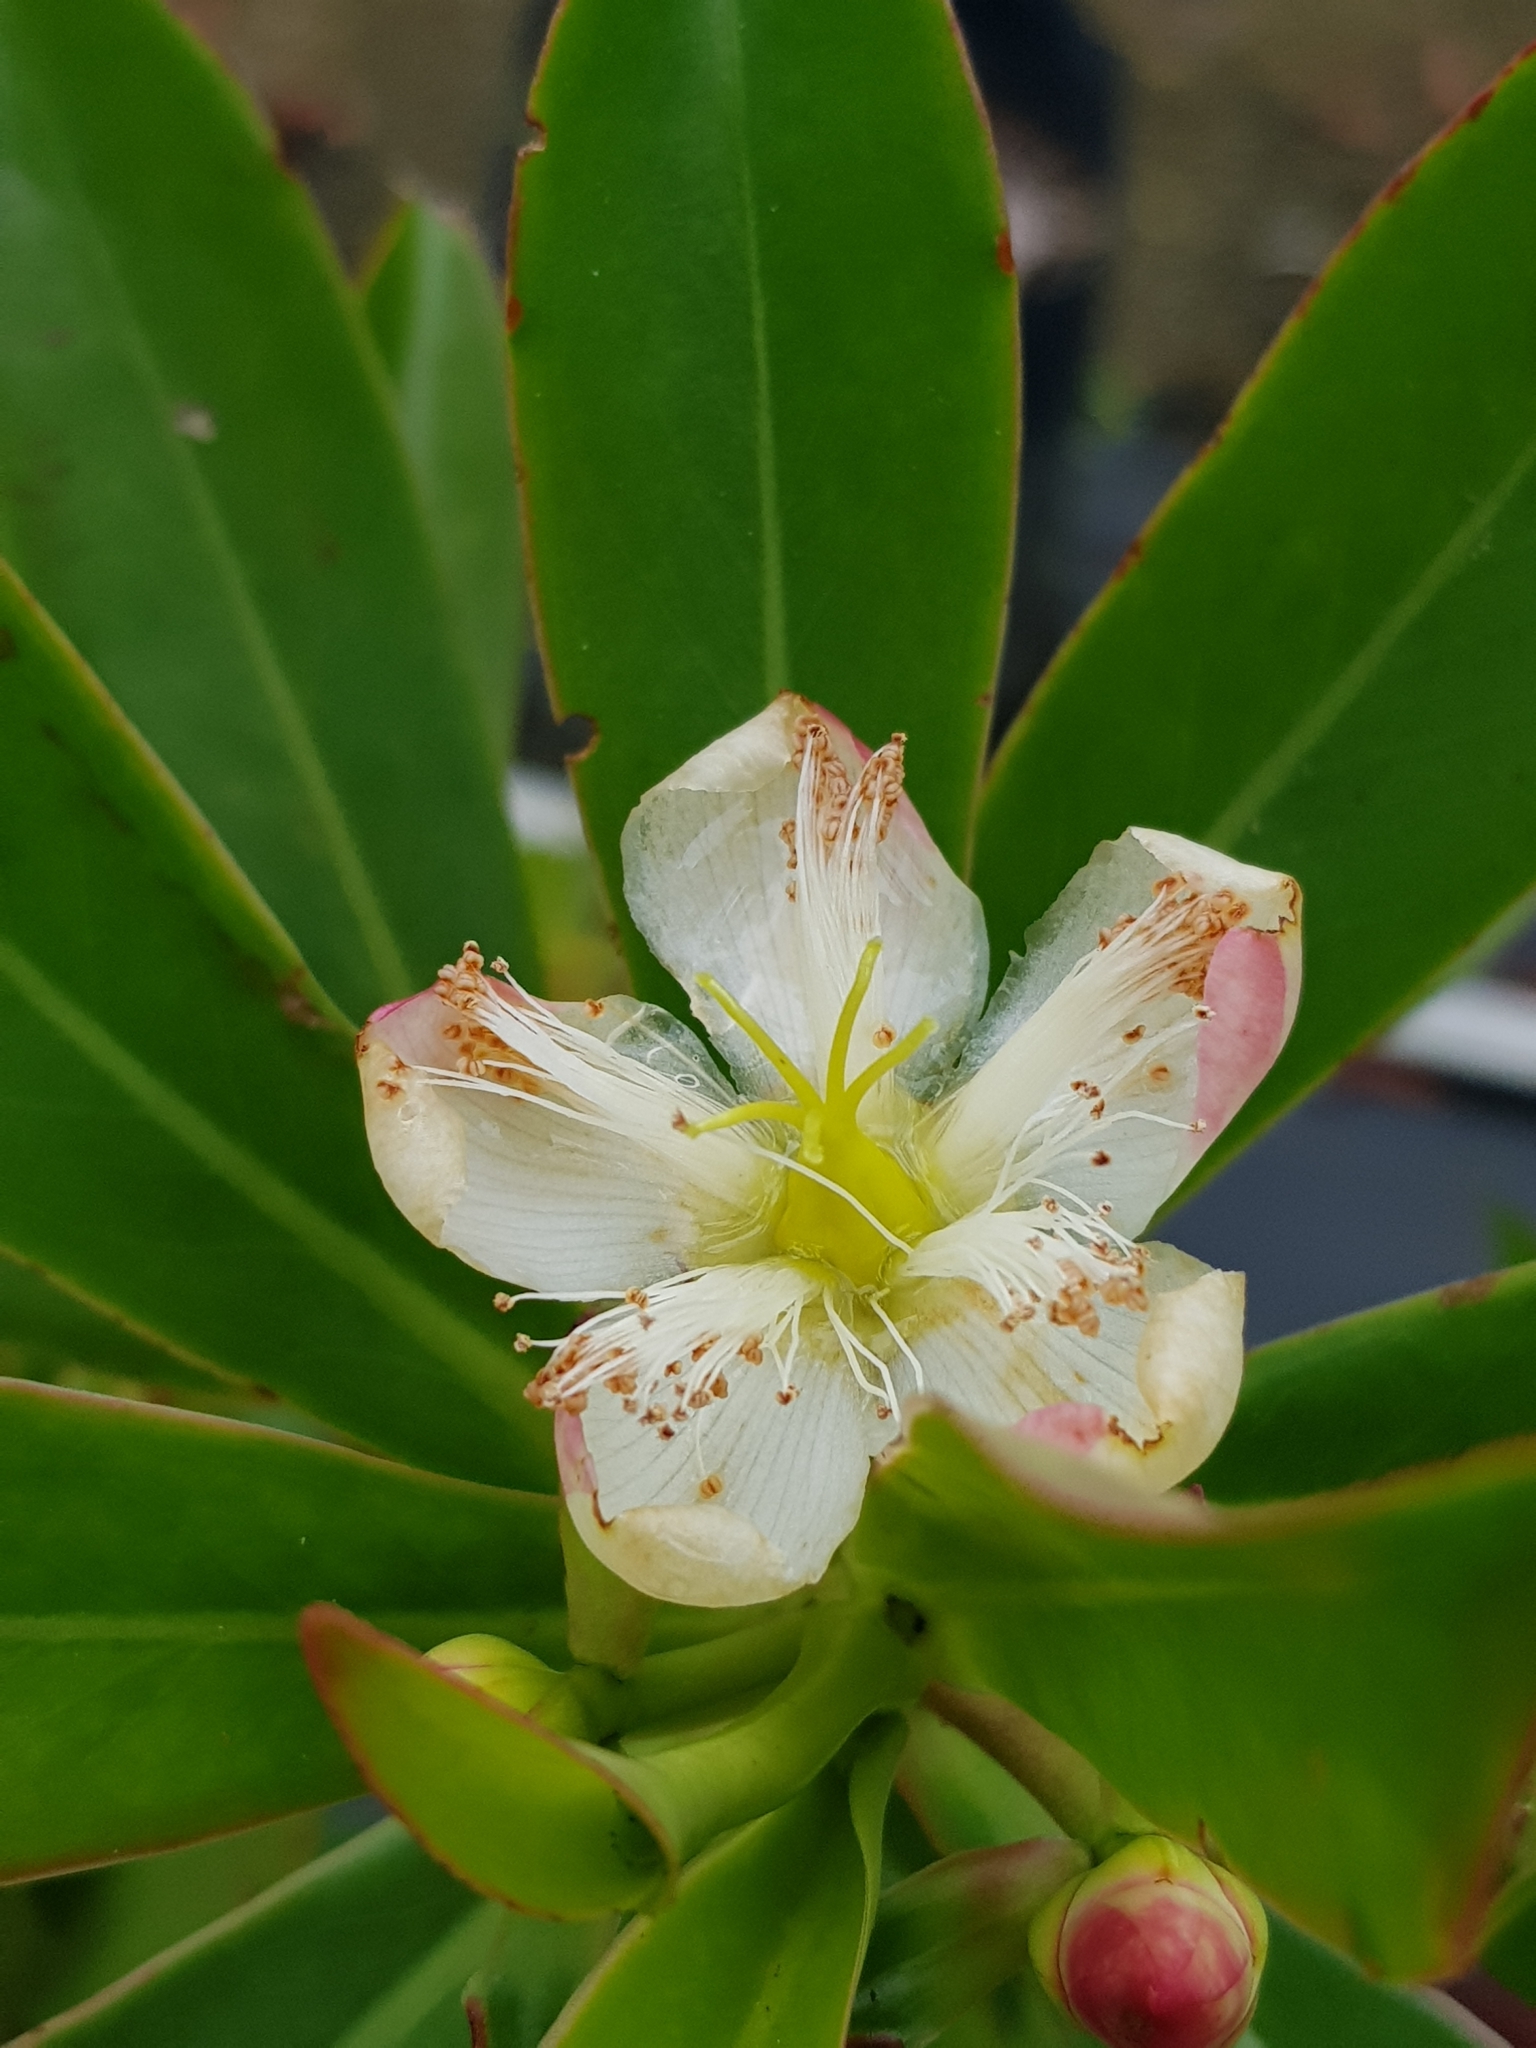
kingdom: Plantae
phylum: Tracheophyta
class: Magnoliopsida
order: Malpighiales
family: Bonnetiaceae
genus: Ploiarium
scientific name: Ploiarium elegans
